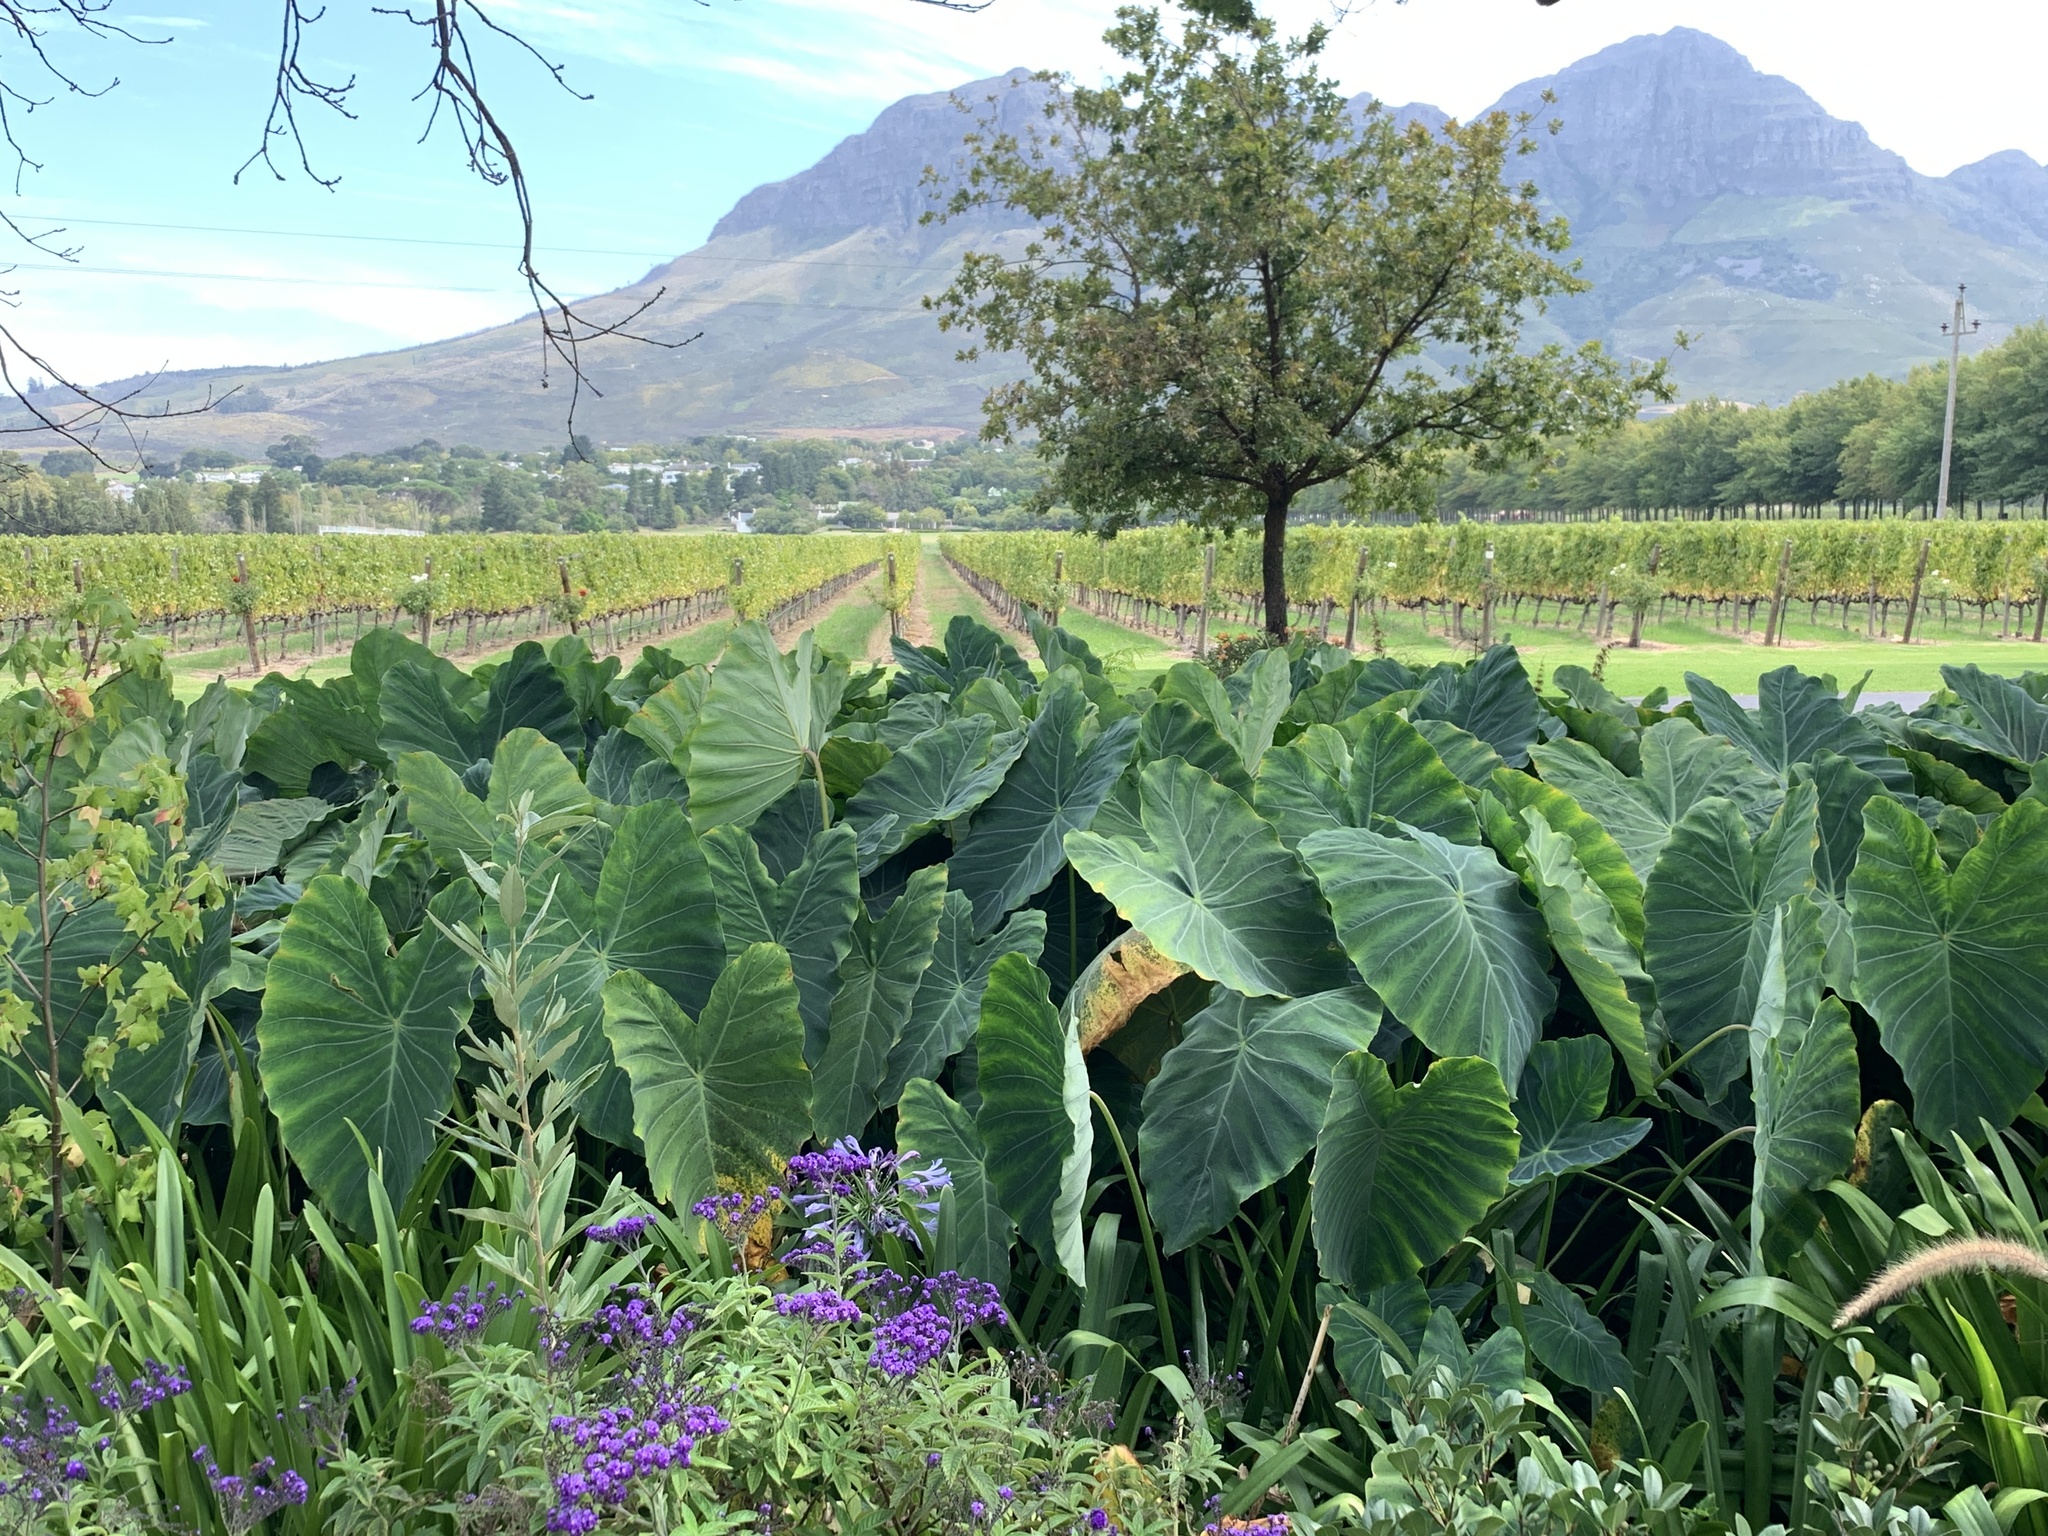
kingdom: Plantae
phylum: Tracheophyta
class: Liliopsida
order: Alismatales
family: Araceae
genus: Colocasia
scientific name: Colocasia esculenta
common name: Taro
